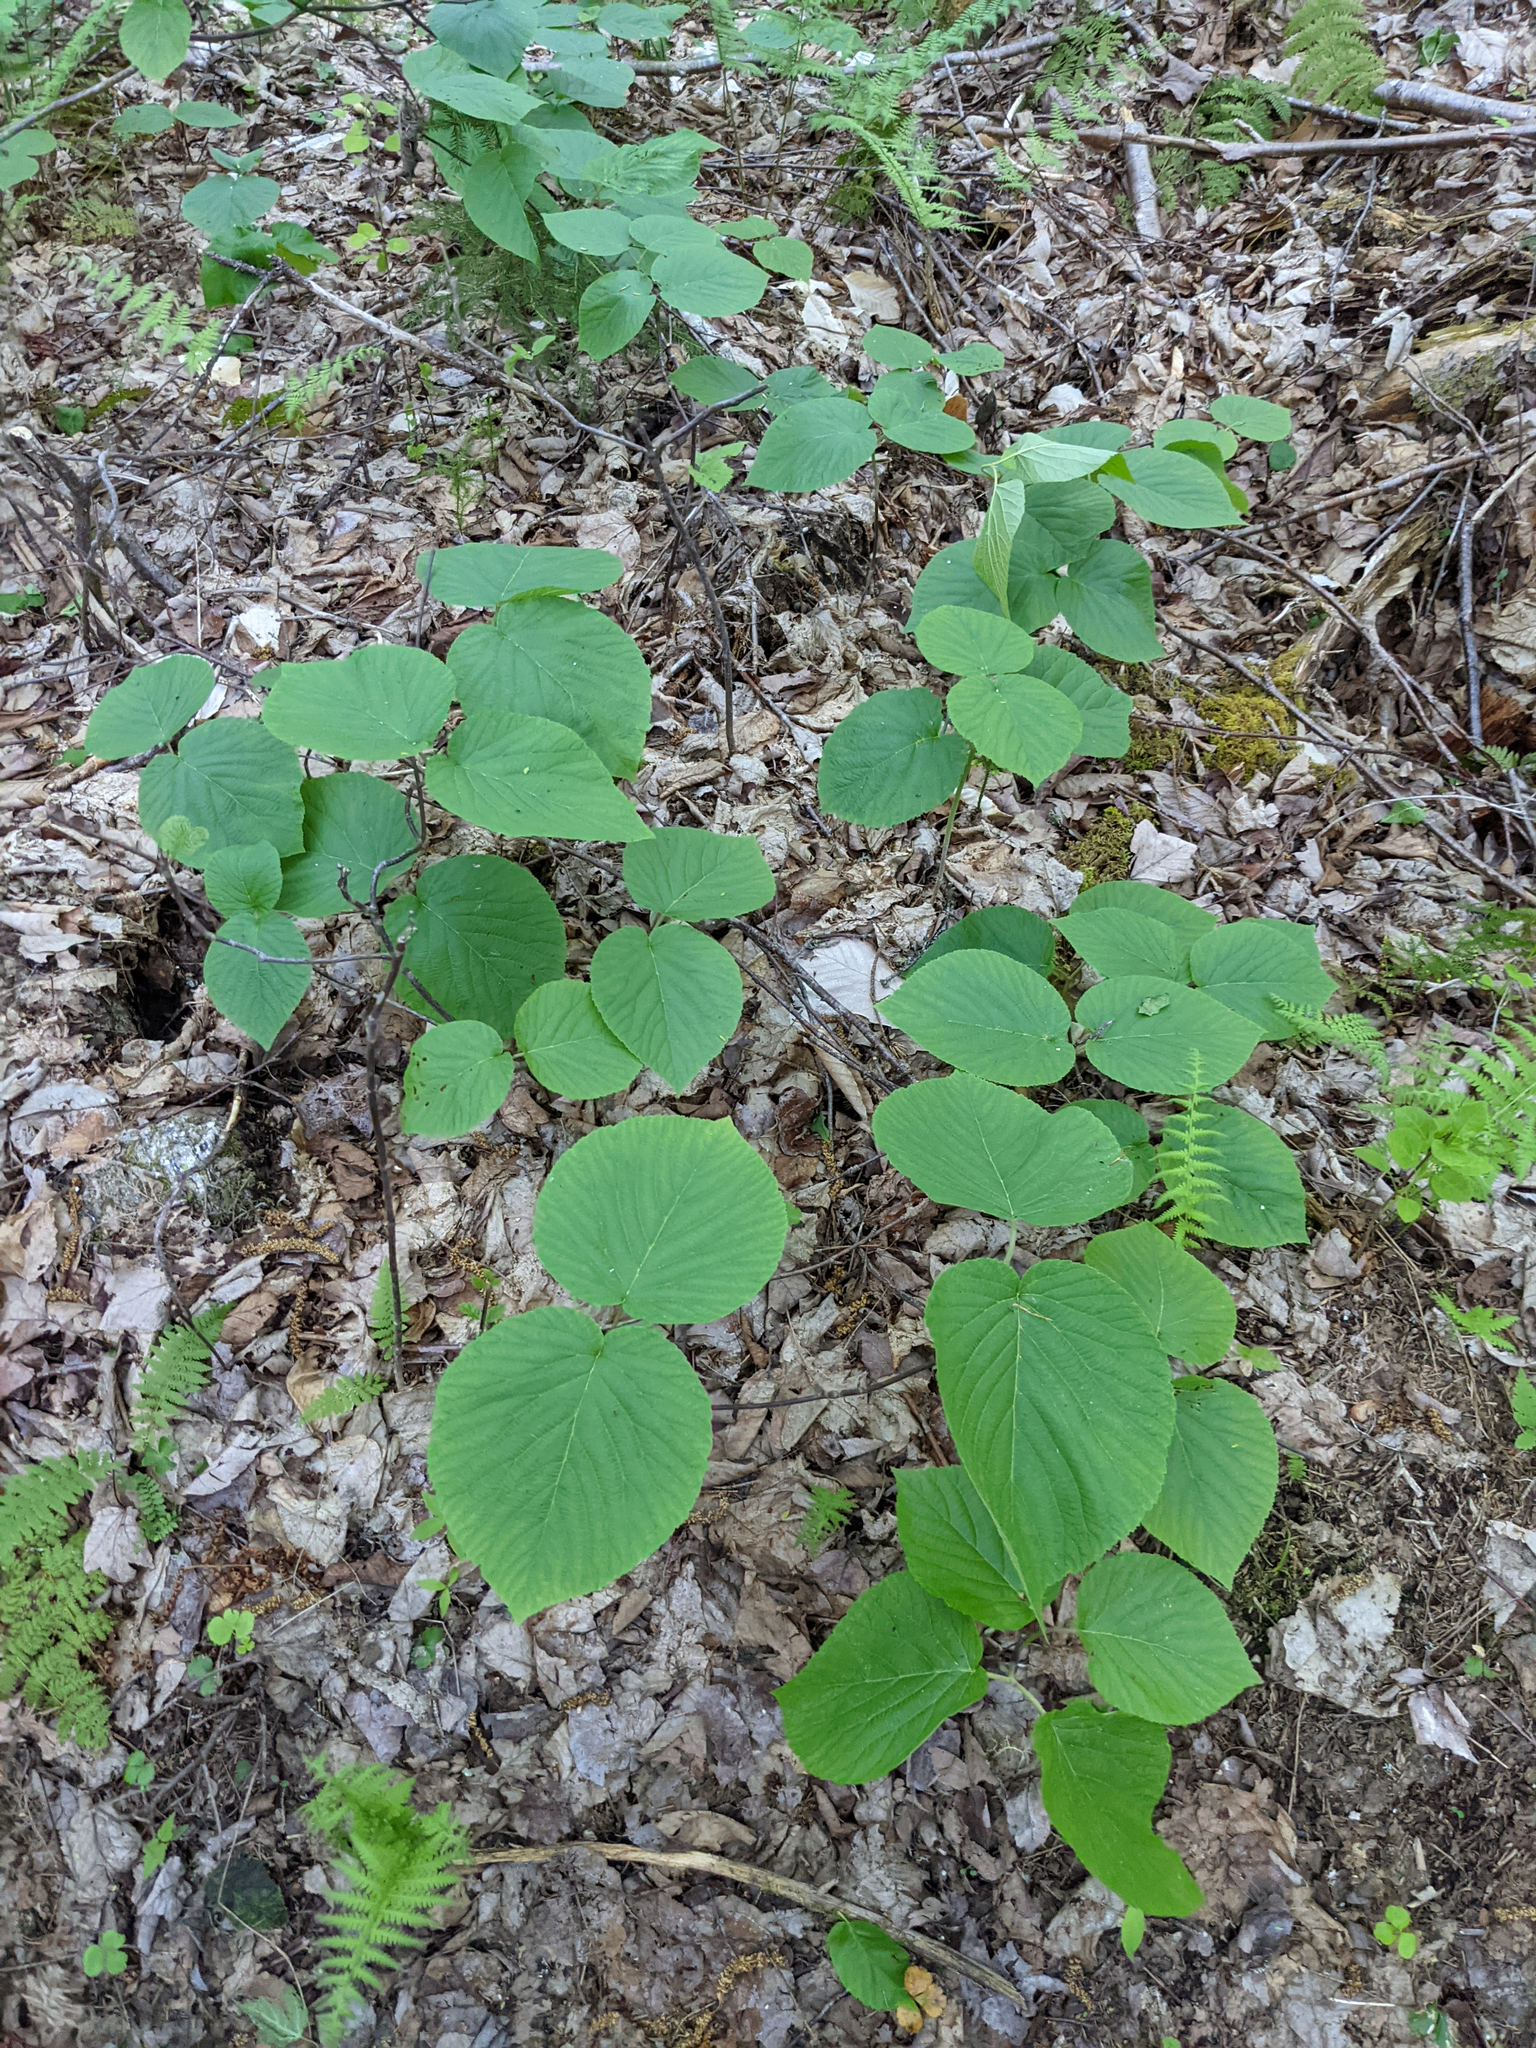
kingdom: Plantae
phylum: Tracheophyta
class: Magnoliopsida
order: Dipsacales
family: Viburnaceae
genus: Viburnum
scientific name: Viburnum lantanoides
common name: Hobblebush
